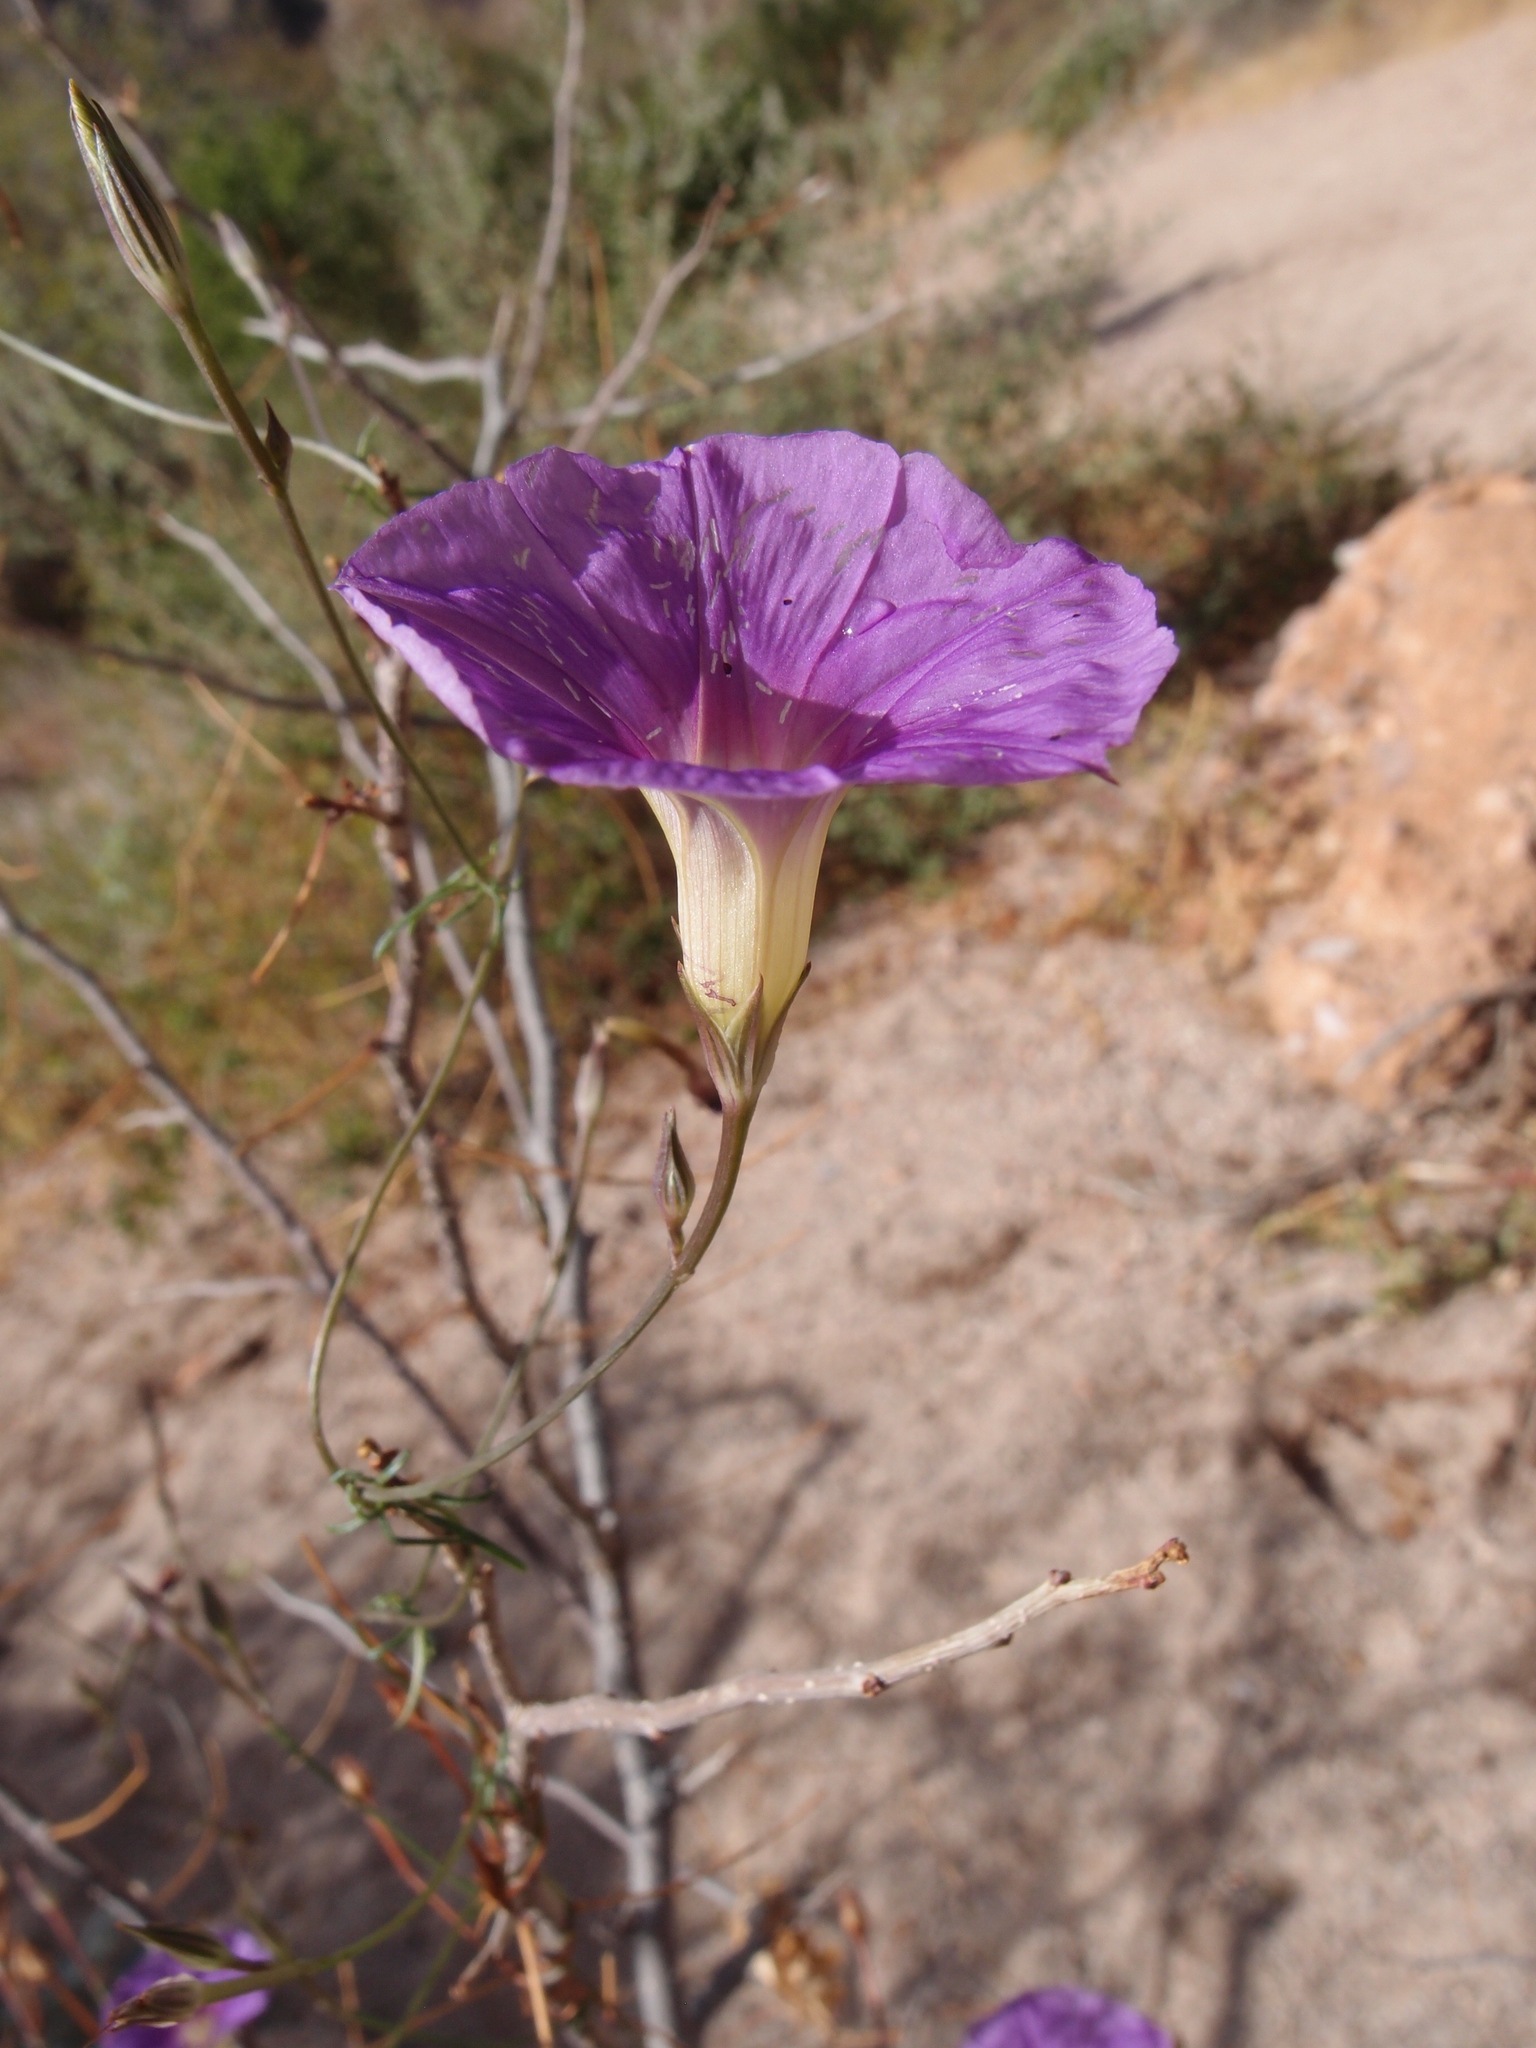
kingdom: Plantae
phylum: Tracheophyta
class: Magnoliopsida
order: Solanales
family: Convolvulaceae
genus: Ipomoea
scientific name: Ipomoea ternifolia
